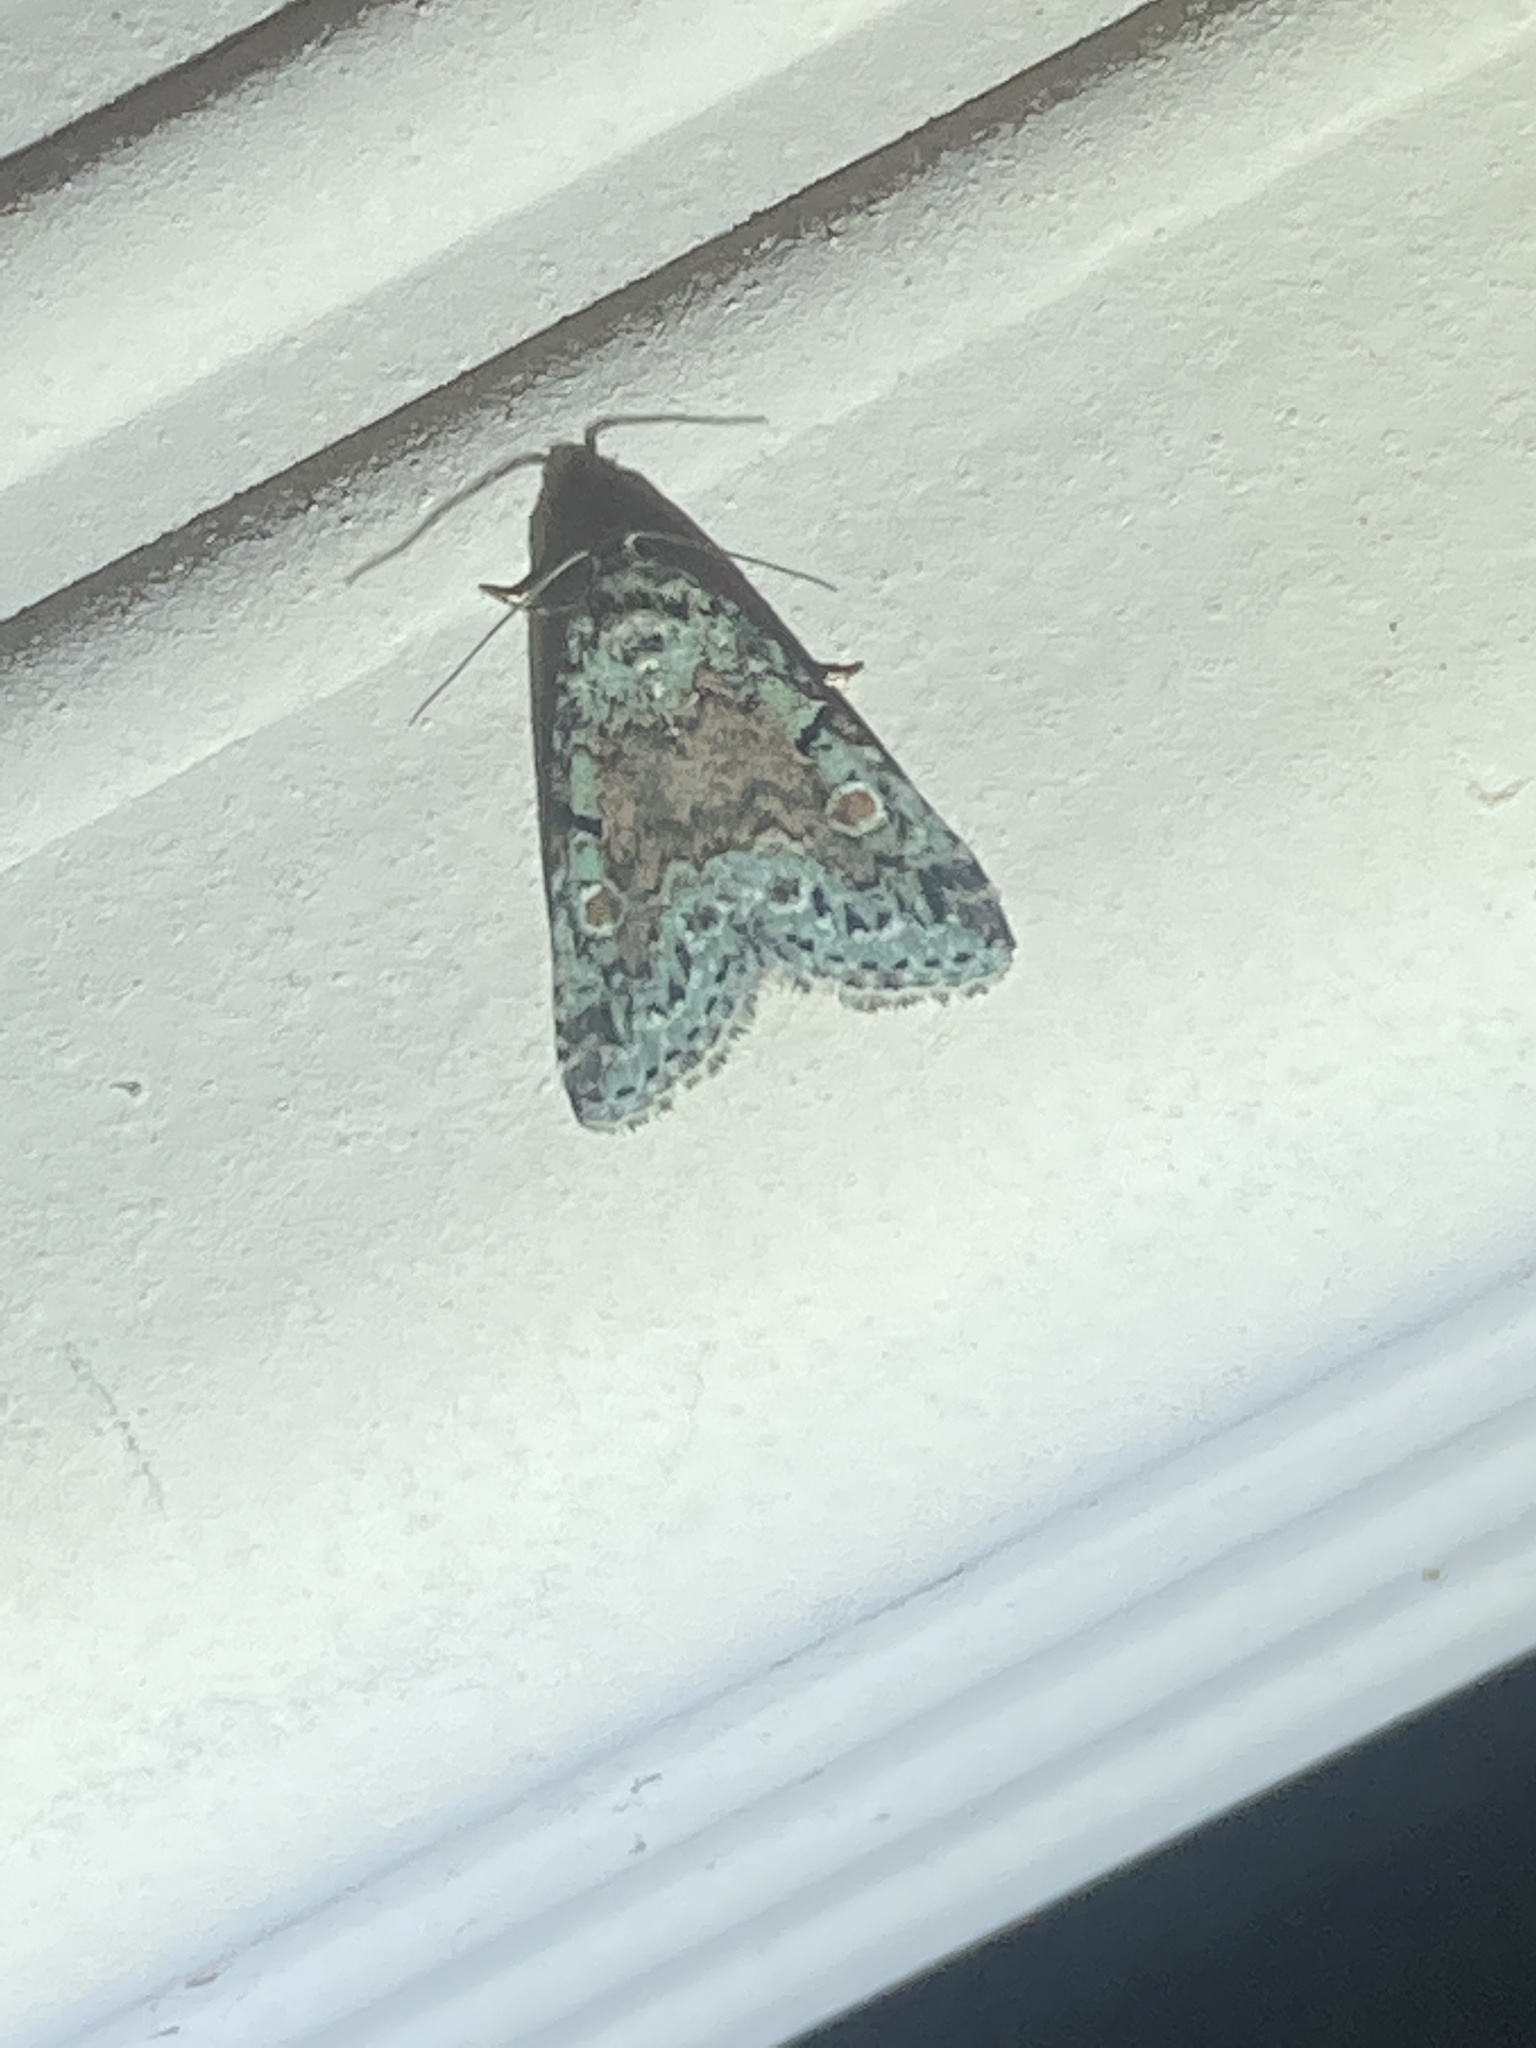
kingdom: Animalia
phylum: Arthropoda
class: Insecta
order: Lepidoptera
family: Noctuidae
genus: Maliattha
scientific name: Maliattha concinnimacula
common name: Red-spotted glyph
